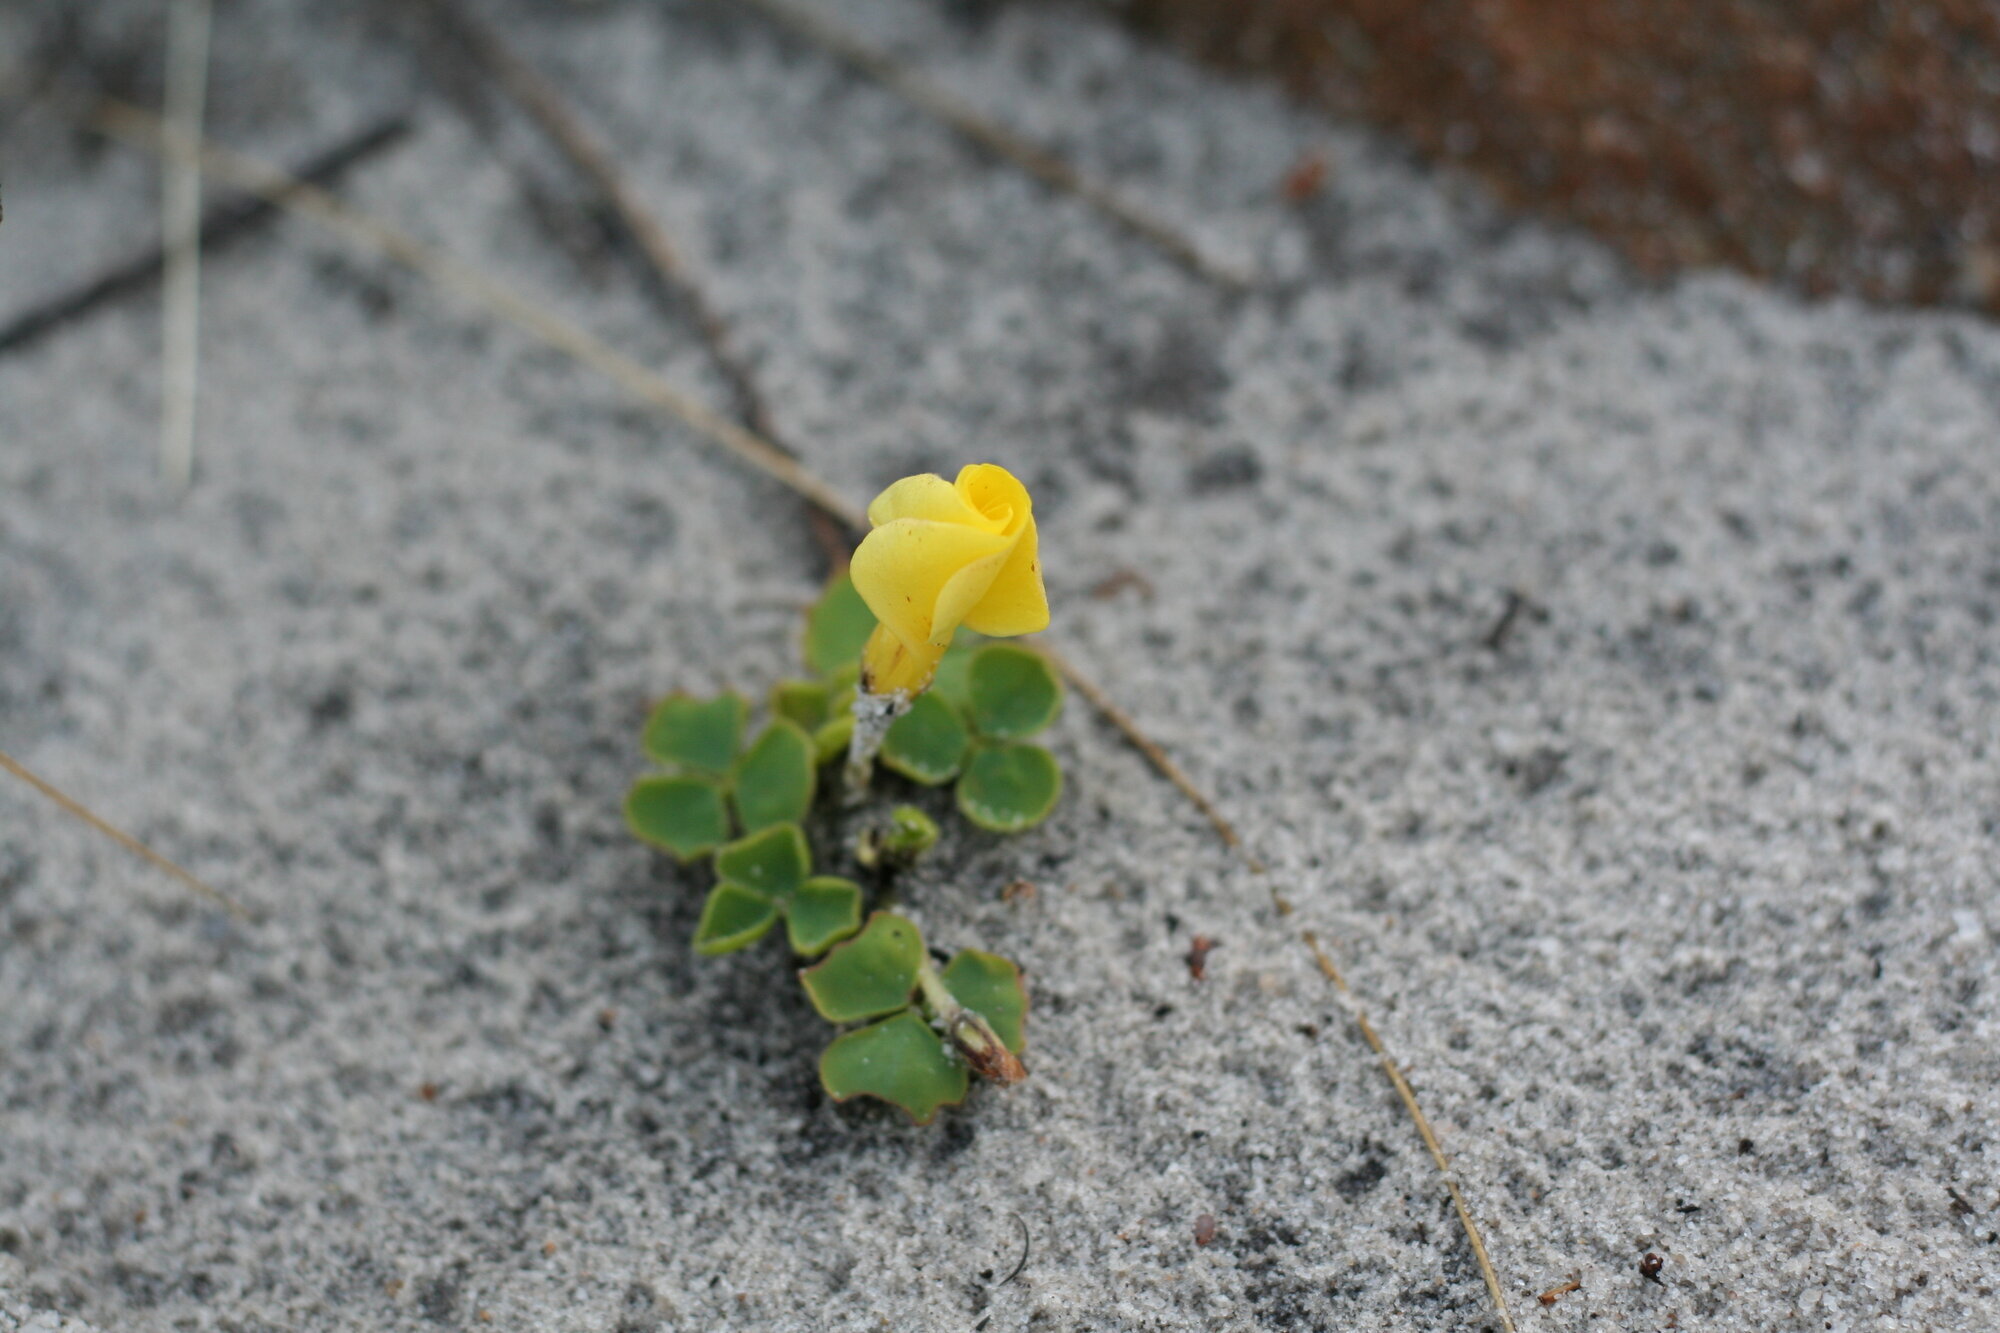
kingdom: Plantae
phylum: Tracheophyta
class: Magnoliopsida
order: Oxalidales
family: Oxalidaceae
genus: Oxalis
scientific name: Oxalis luteola
